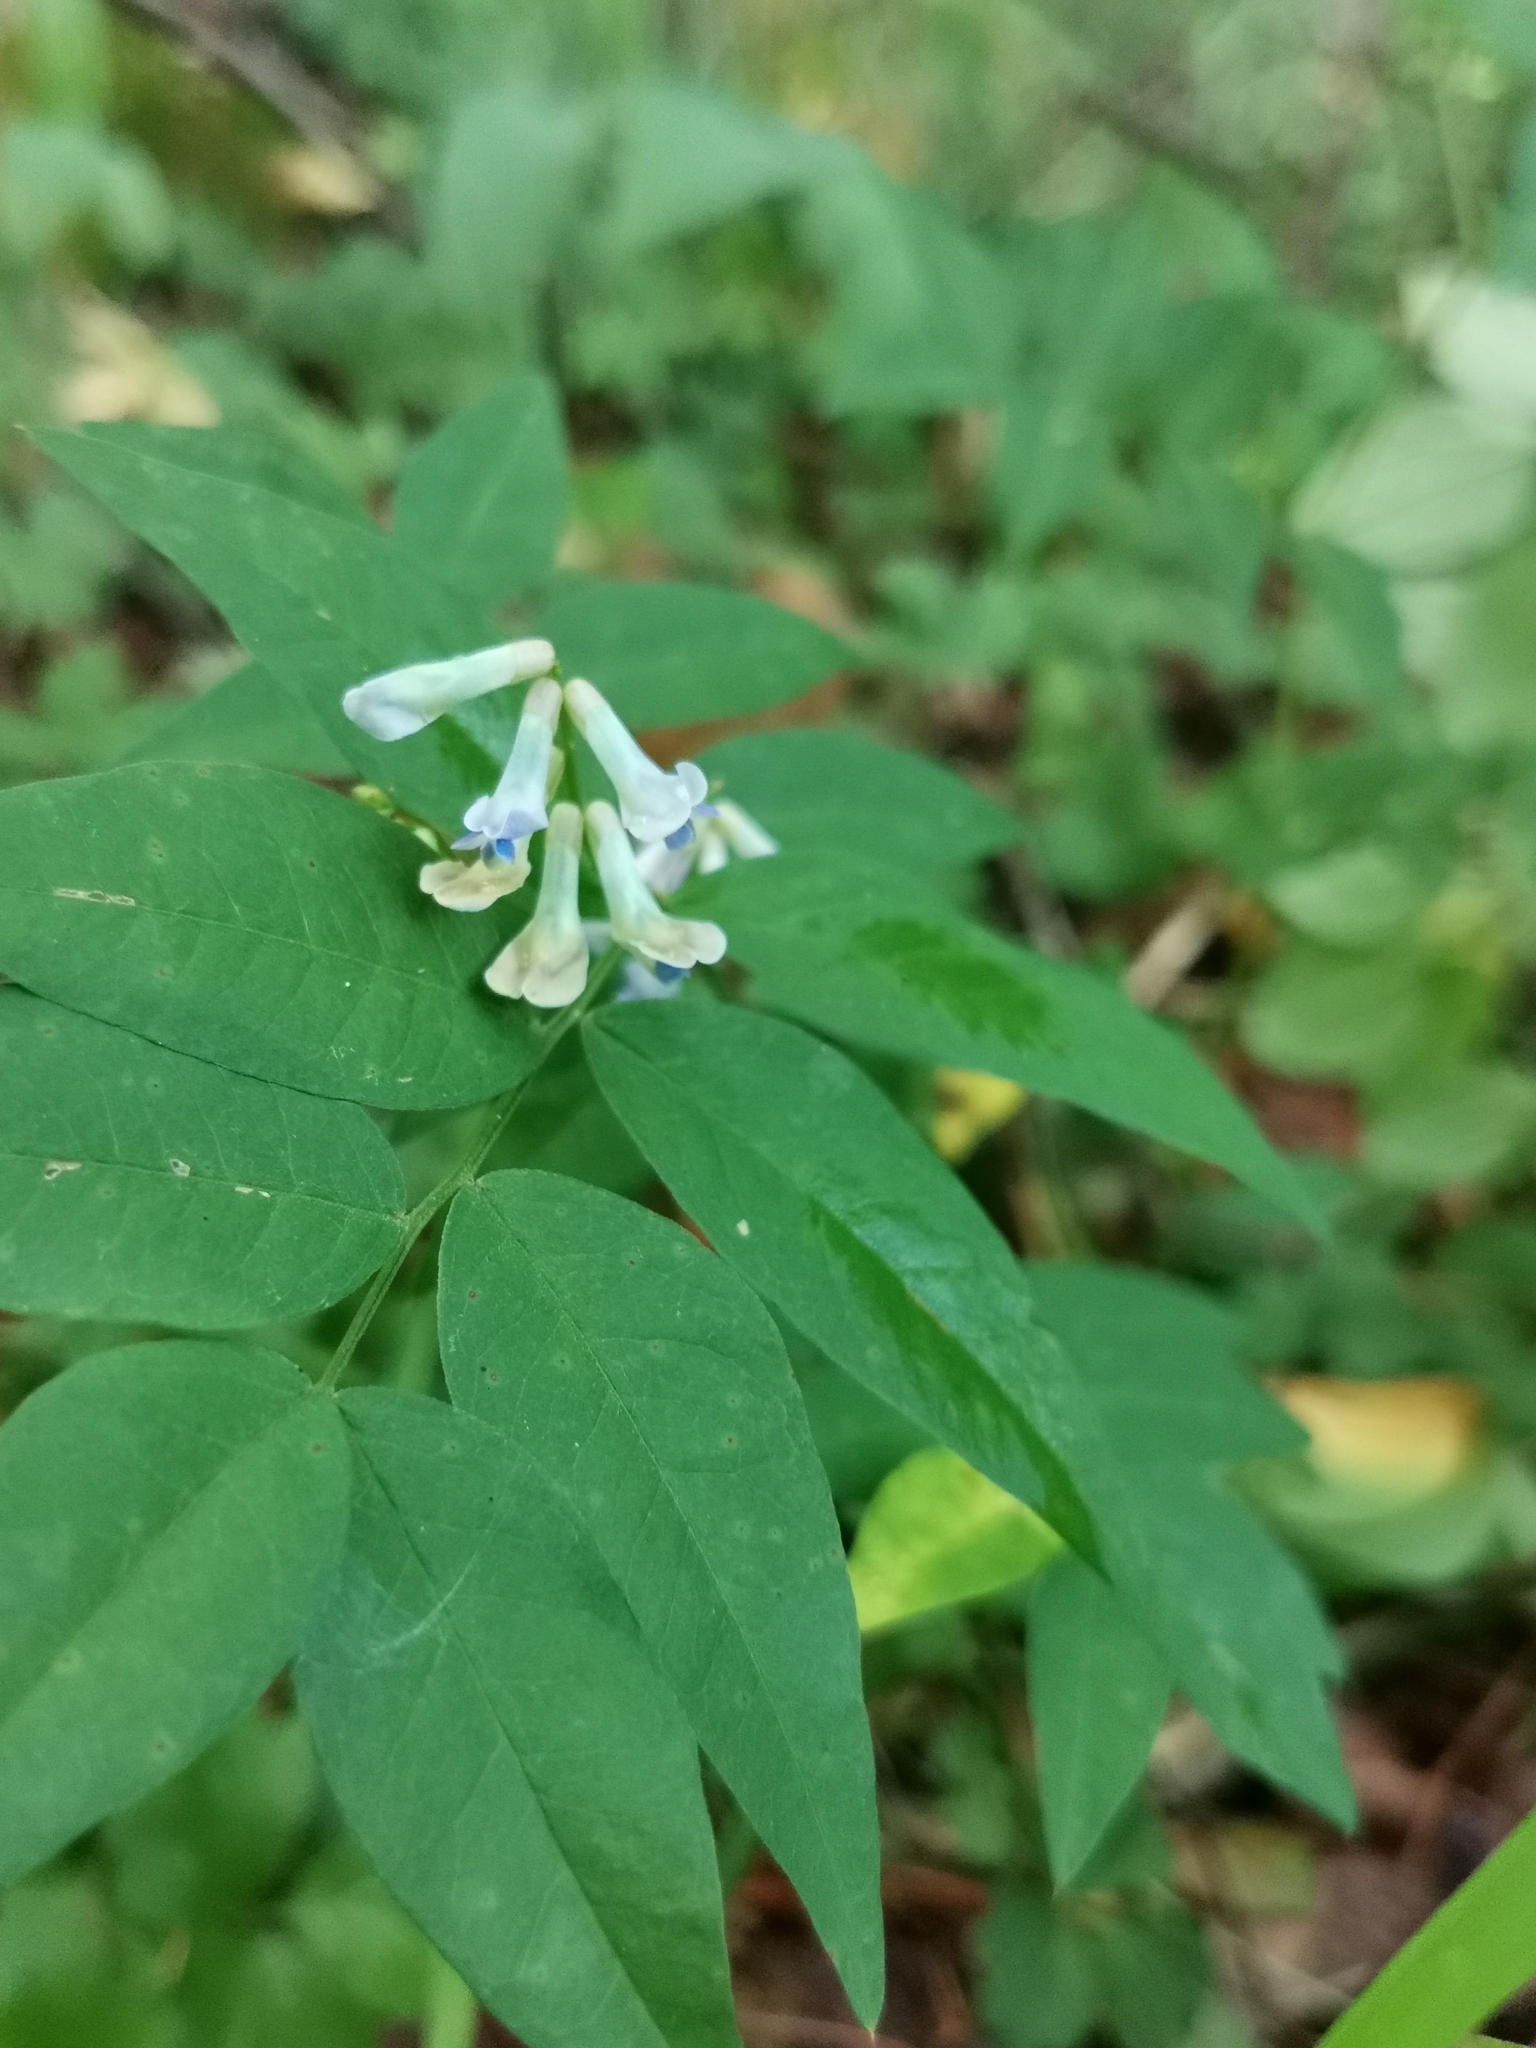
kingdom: Plantae
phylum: Tracheophyta
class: Magnoliopsida
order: Fabales
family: Fabaceae
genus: Vicia
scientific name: Vicia ramuliflora
